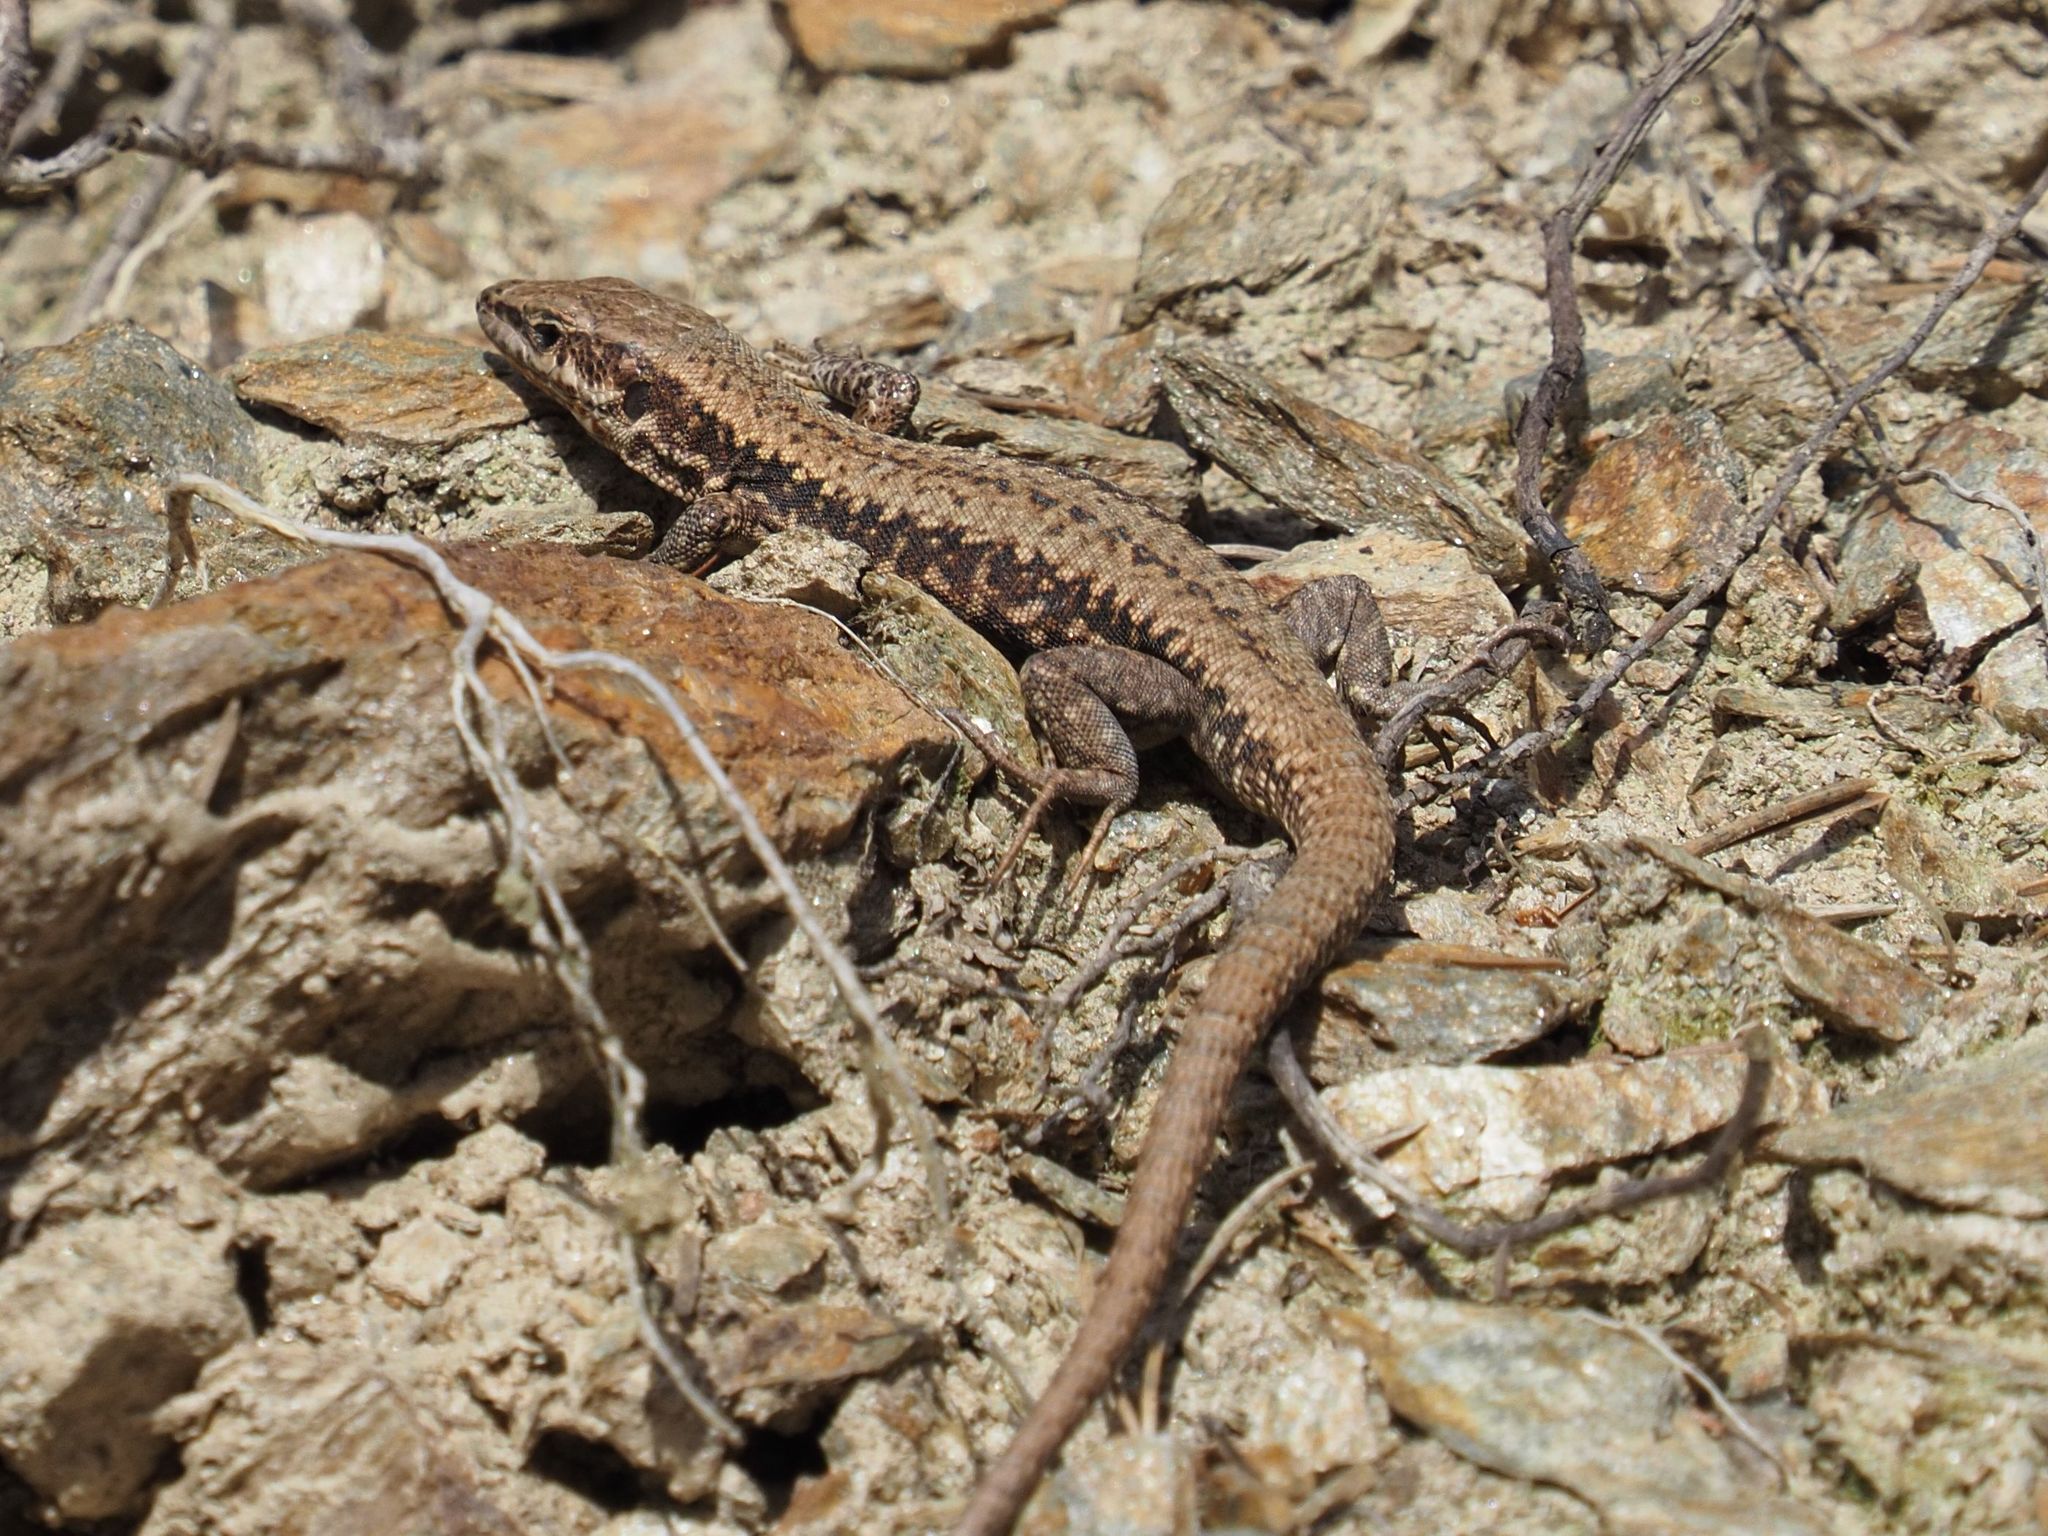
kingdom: Animalia
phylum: Chordata
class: Squamata
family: Lacertidae
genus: Podarcis
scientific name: Podarcis muralis
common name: Common wall lizard
